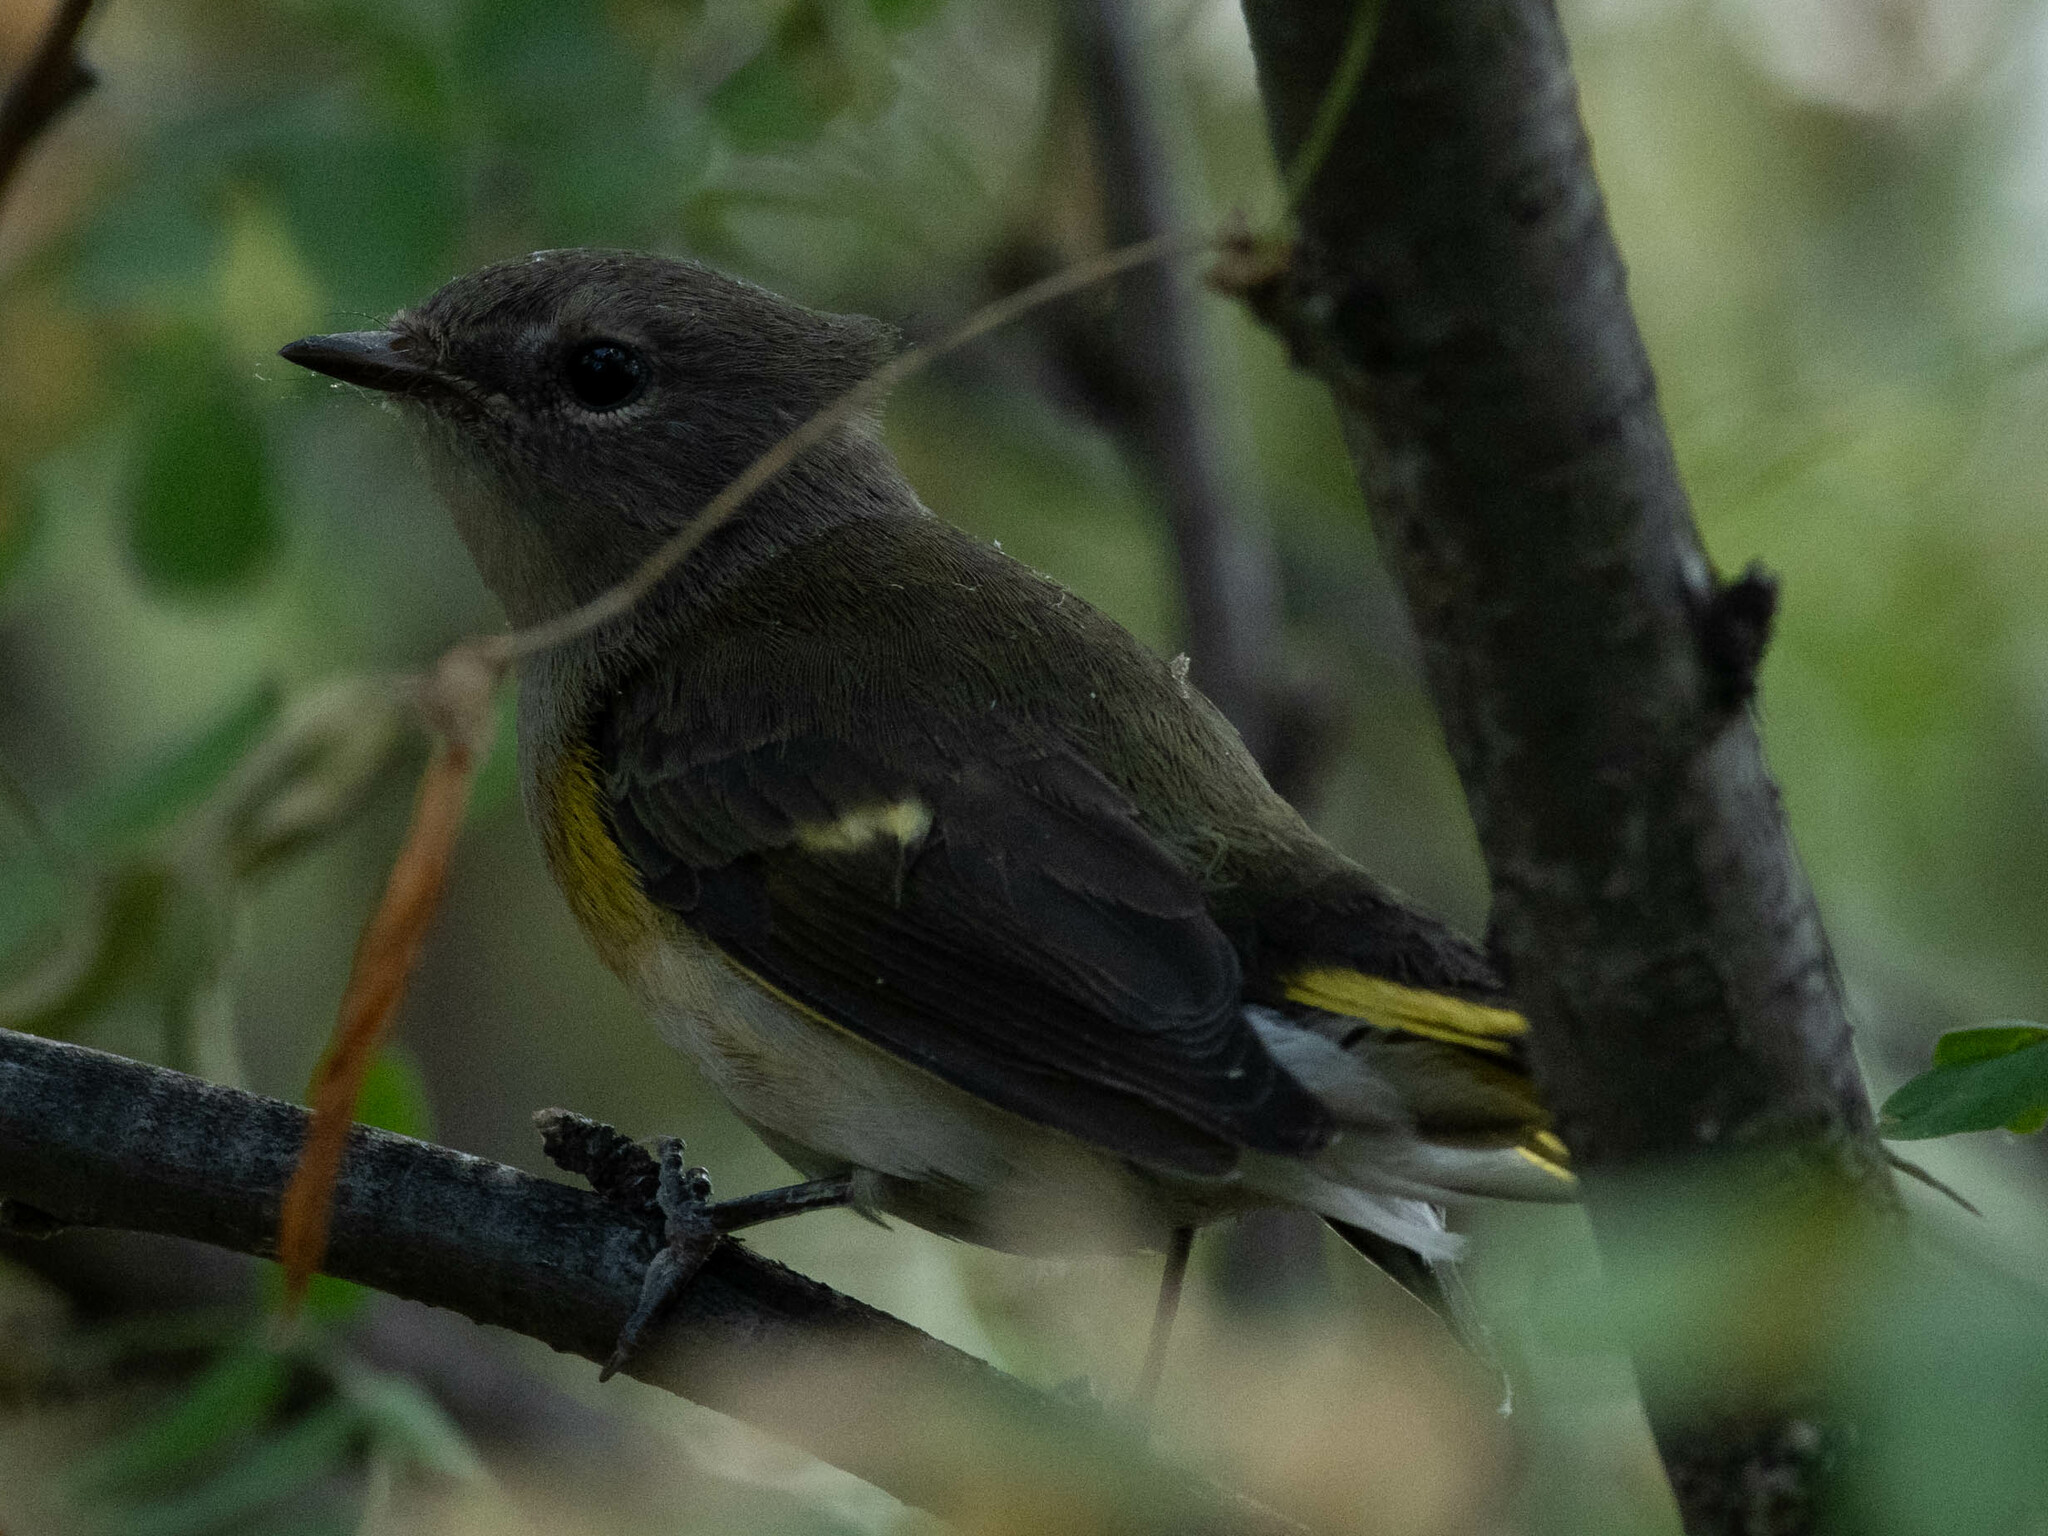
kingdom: Animalia
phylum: Chordata
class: Aves
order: Passeriformes
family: Parulidae
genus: Setophaga
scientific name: Setophaga ruticilla
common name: American redstart
